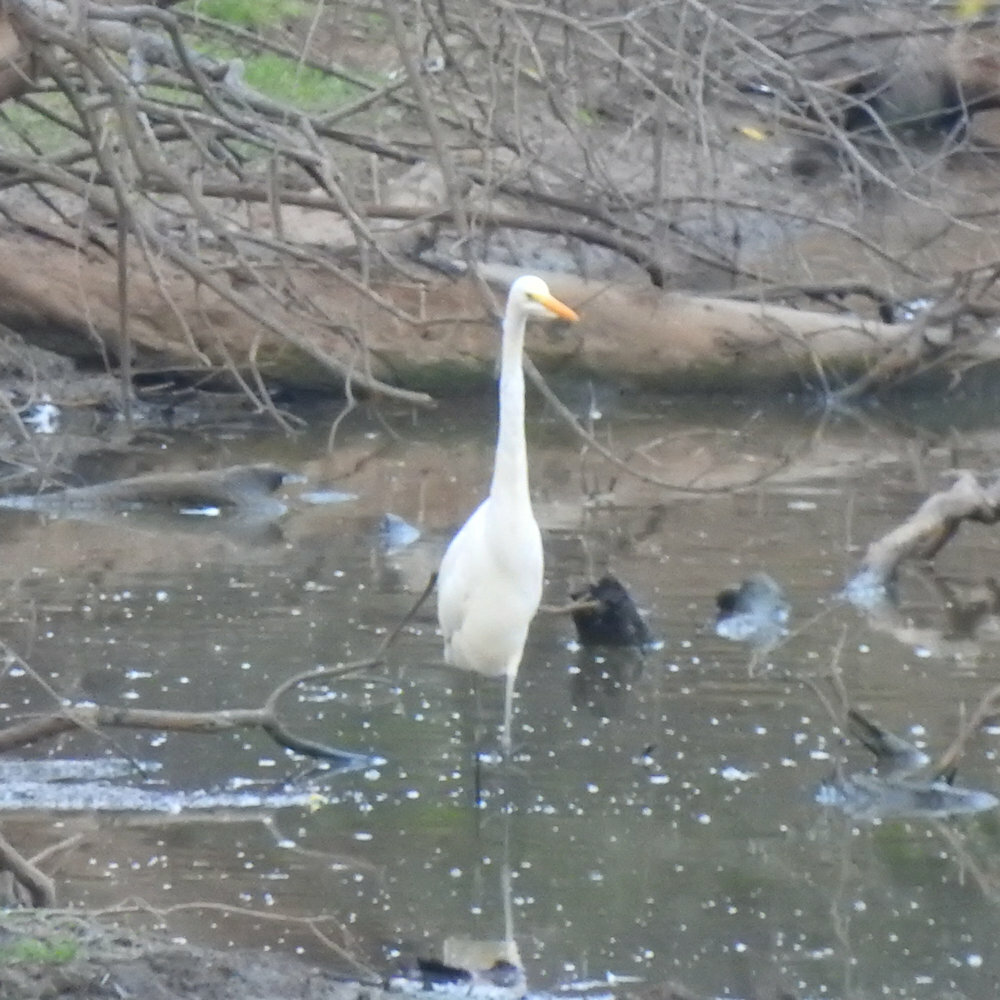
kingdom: Animalia
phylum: Chordata
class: Aves
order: Pelecaniformes
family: Ardeidae
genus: Ardea
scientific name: Ardea alba
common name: Great egret
